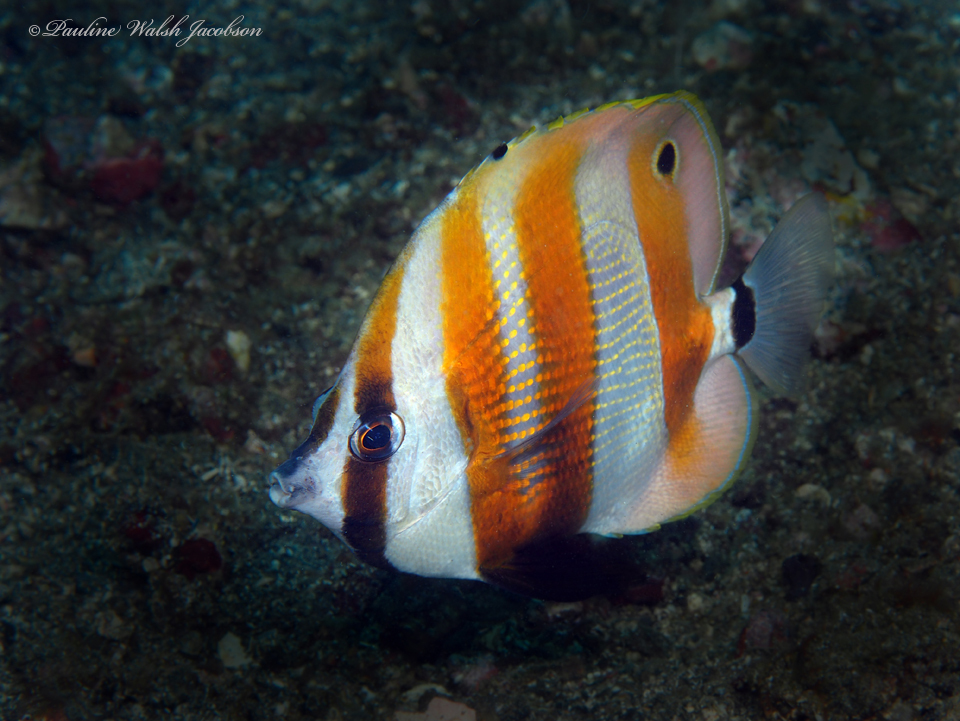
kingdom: Animalia
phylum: Chordata
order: Perciformes
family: Chaetodontidae
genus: Coradion
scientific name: Coradion chrysozonus
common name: Orange-banded coralfish
